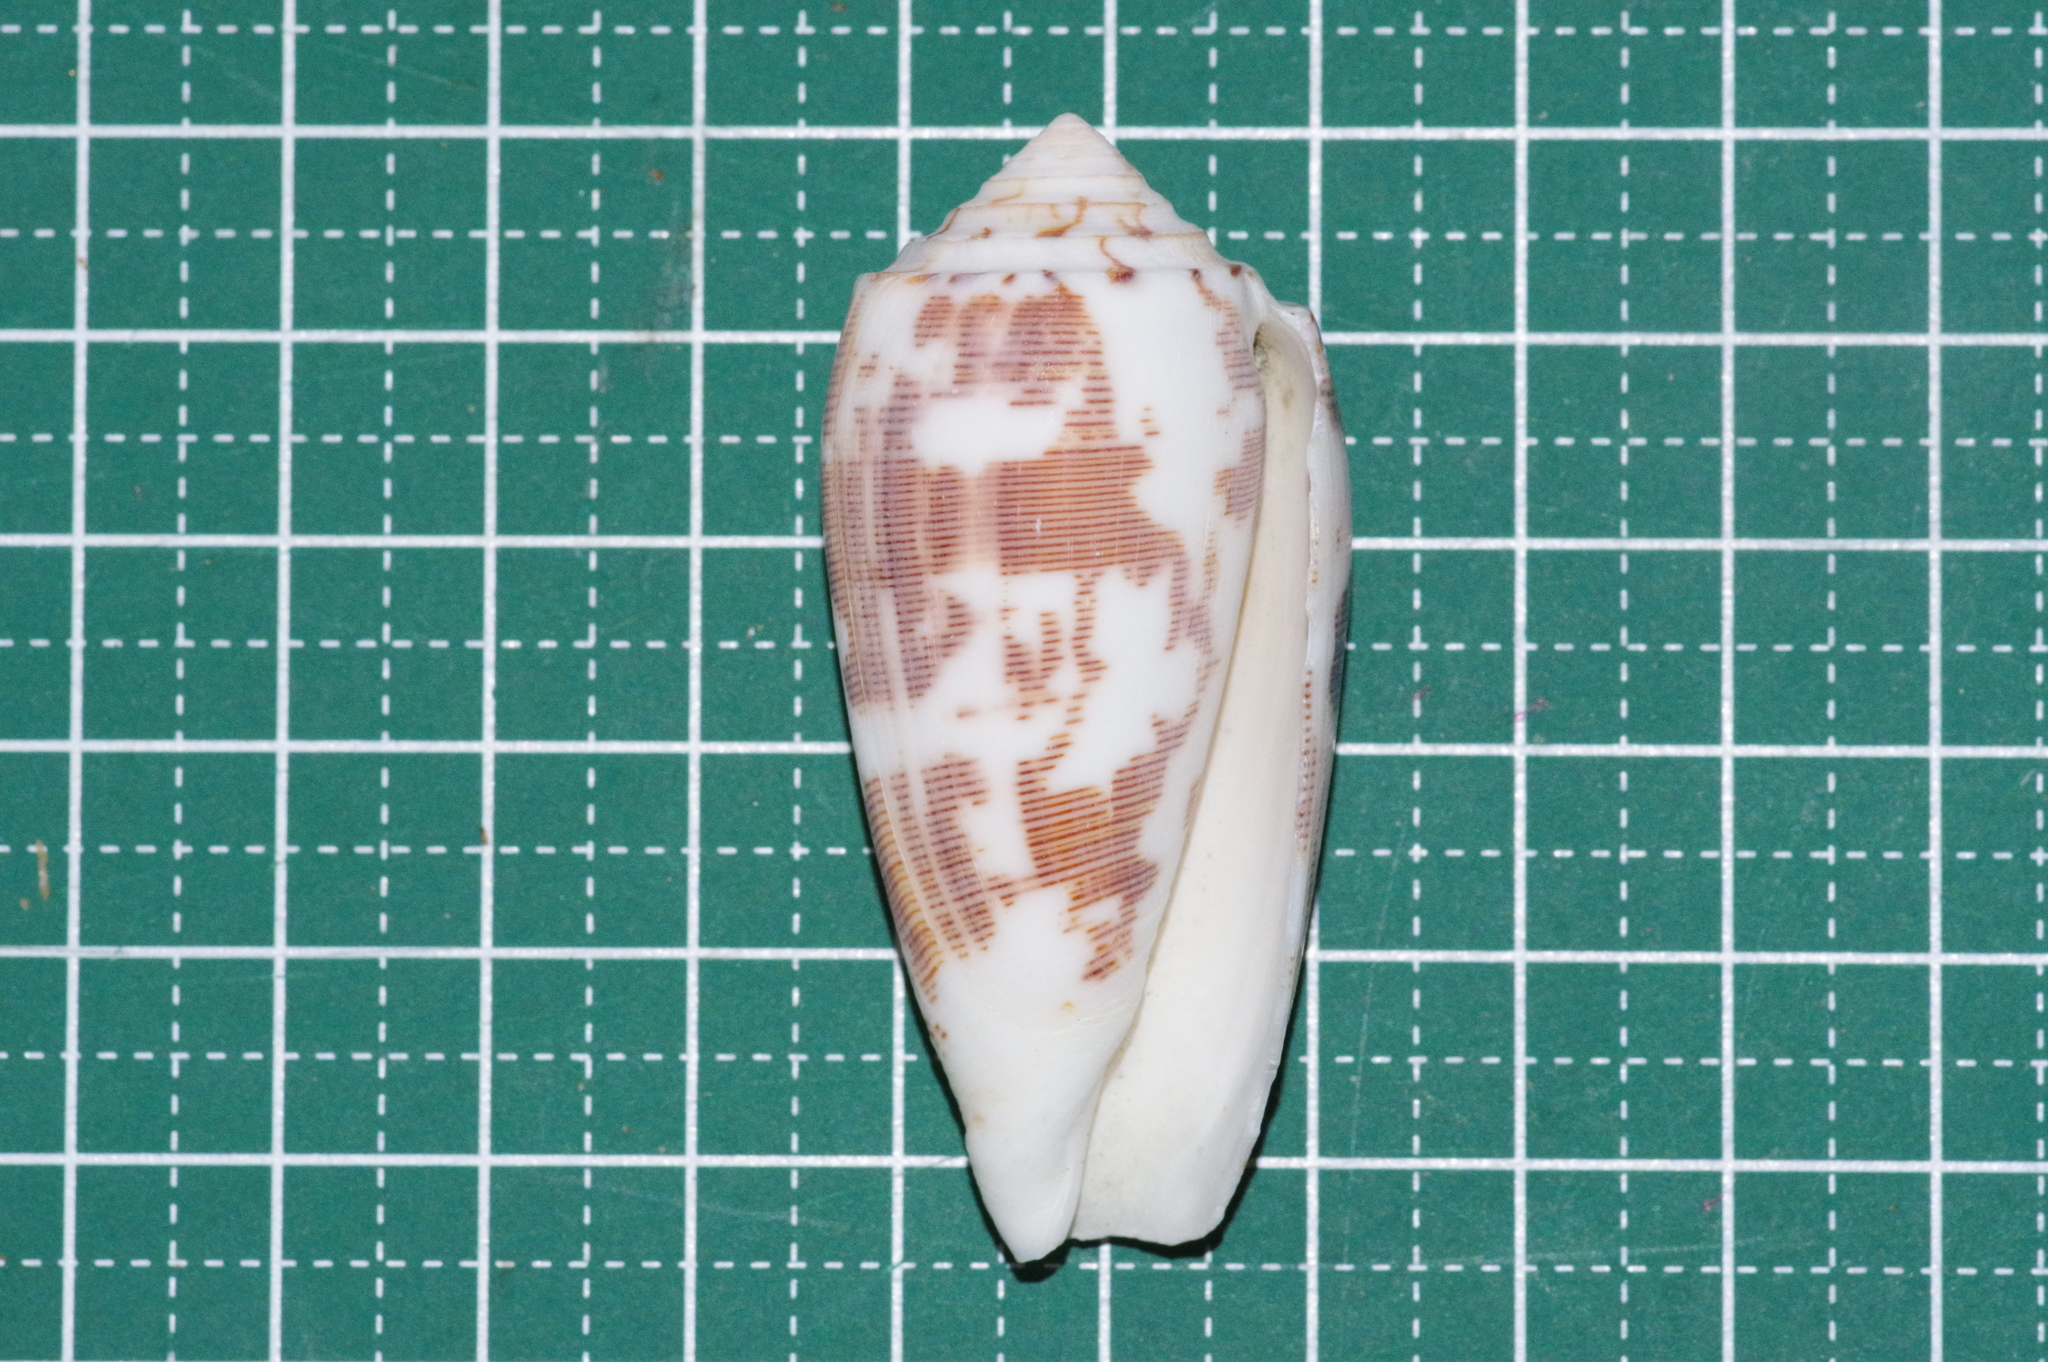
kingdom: Animalia
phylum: Mollusca
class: Gastropoda
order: Neogastropoda
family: Conidae
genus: Conus
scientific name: Conus striatus
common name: Striated cone
